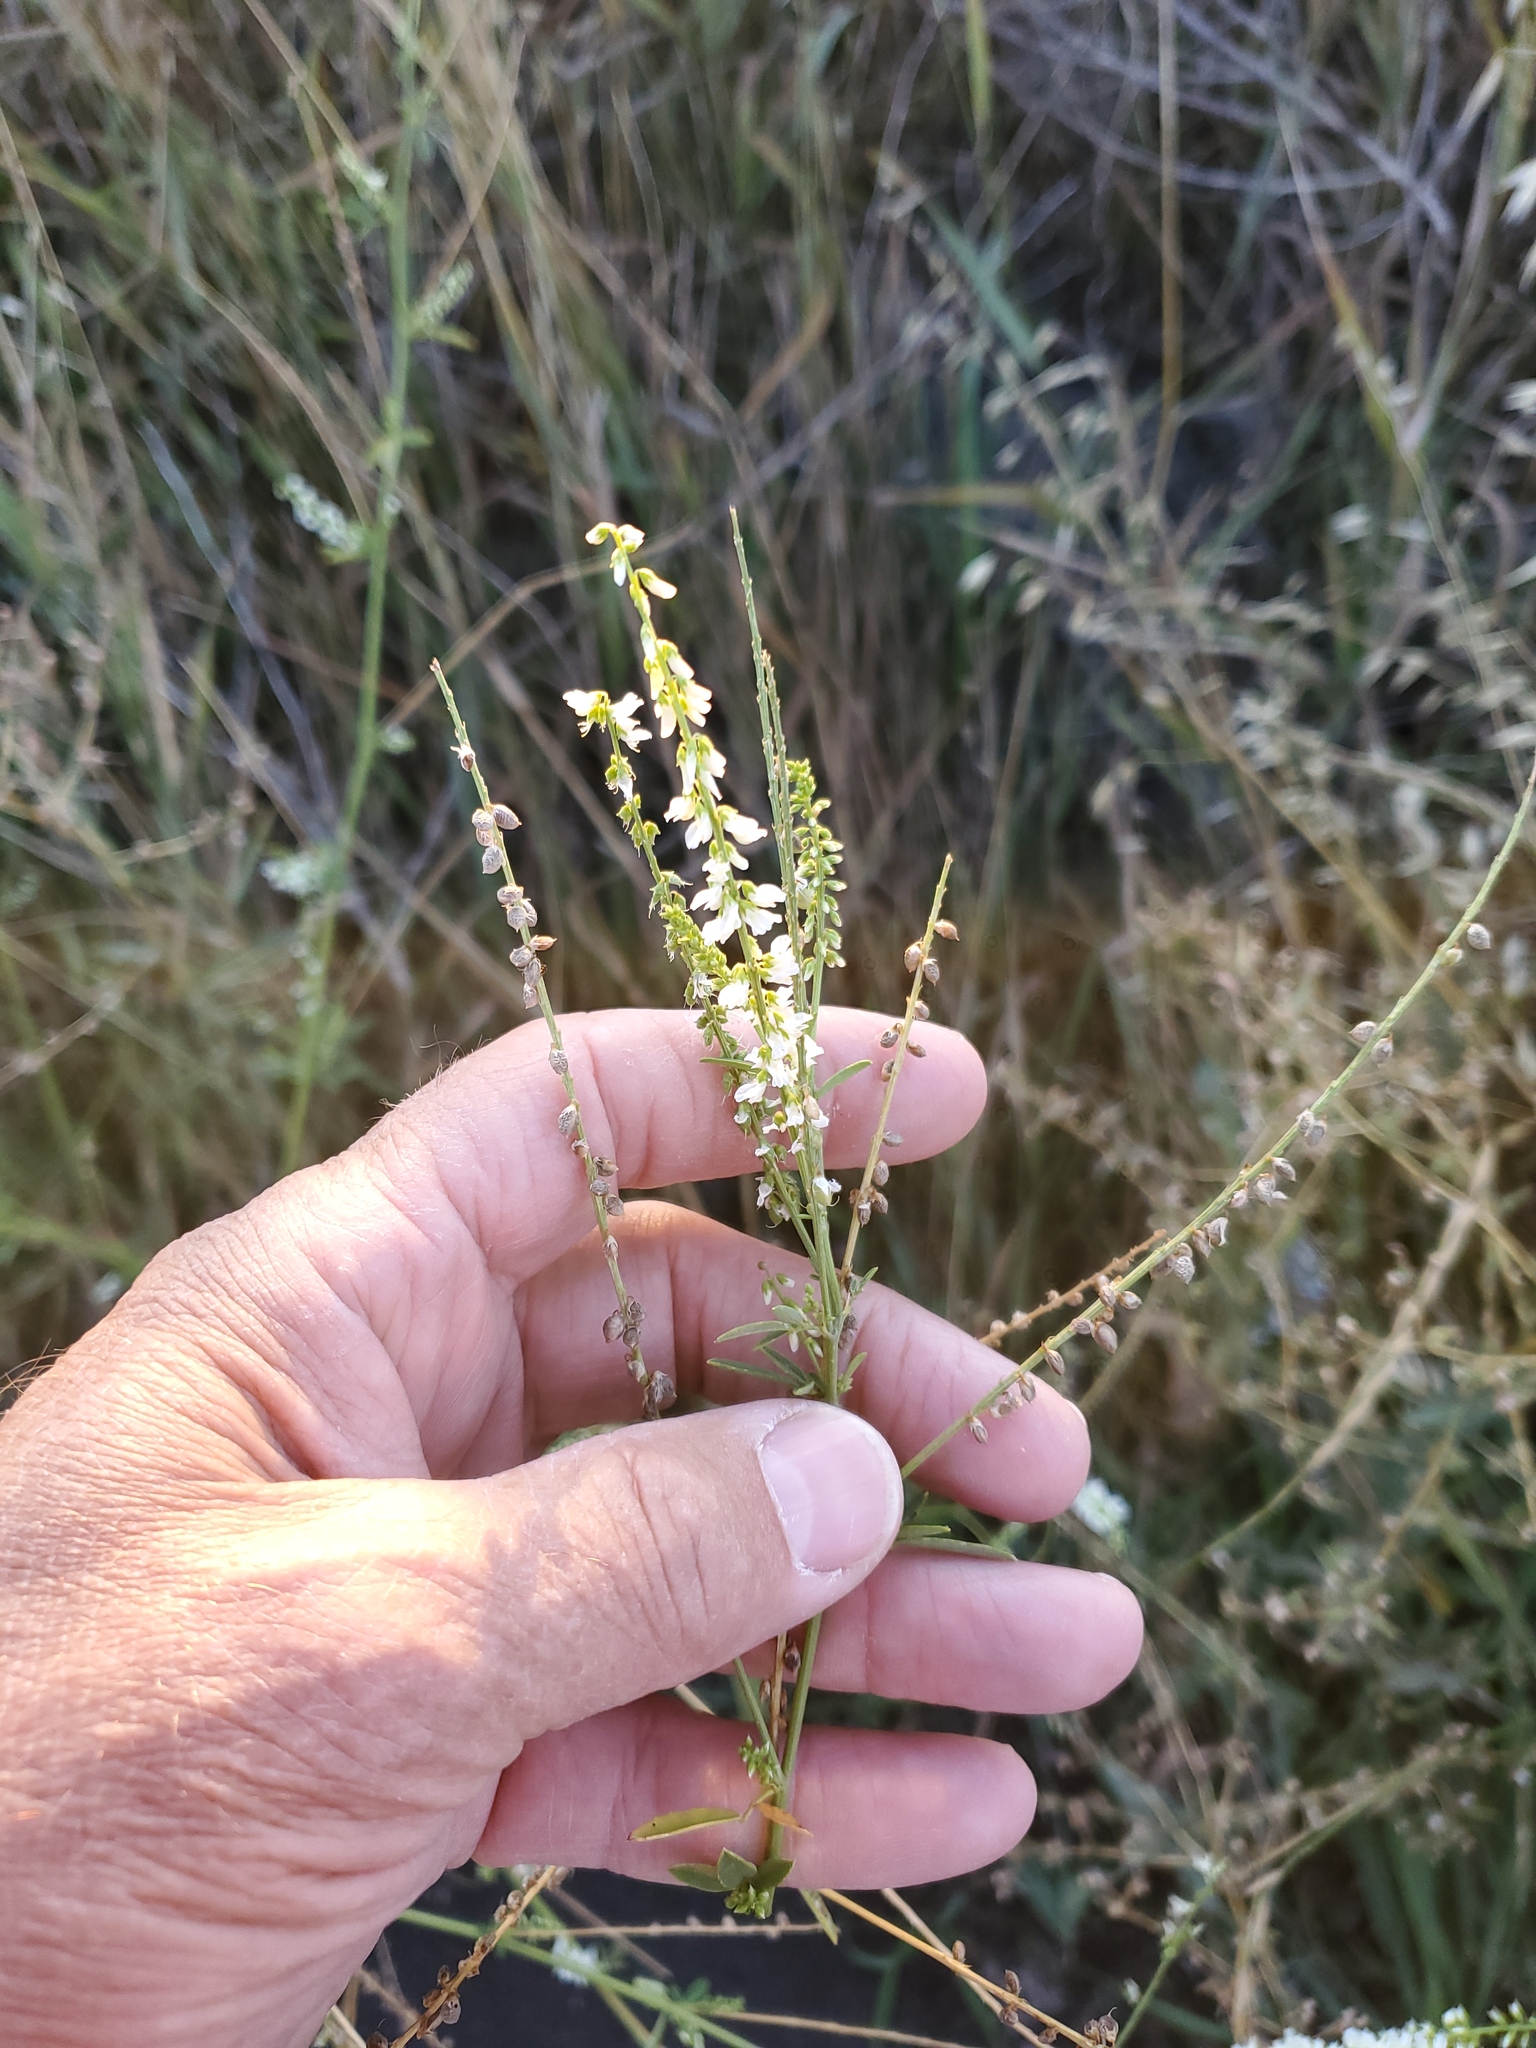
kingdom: Plantae
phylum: Tracheophyta
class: Magnoliopsida
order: Fabales
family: Fabaceae
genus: Melilotus
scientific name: Melilotus albus
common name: White melilot
